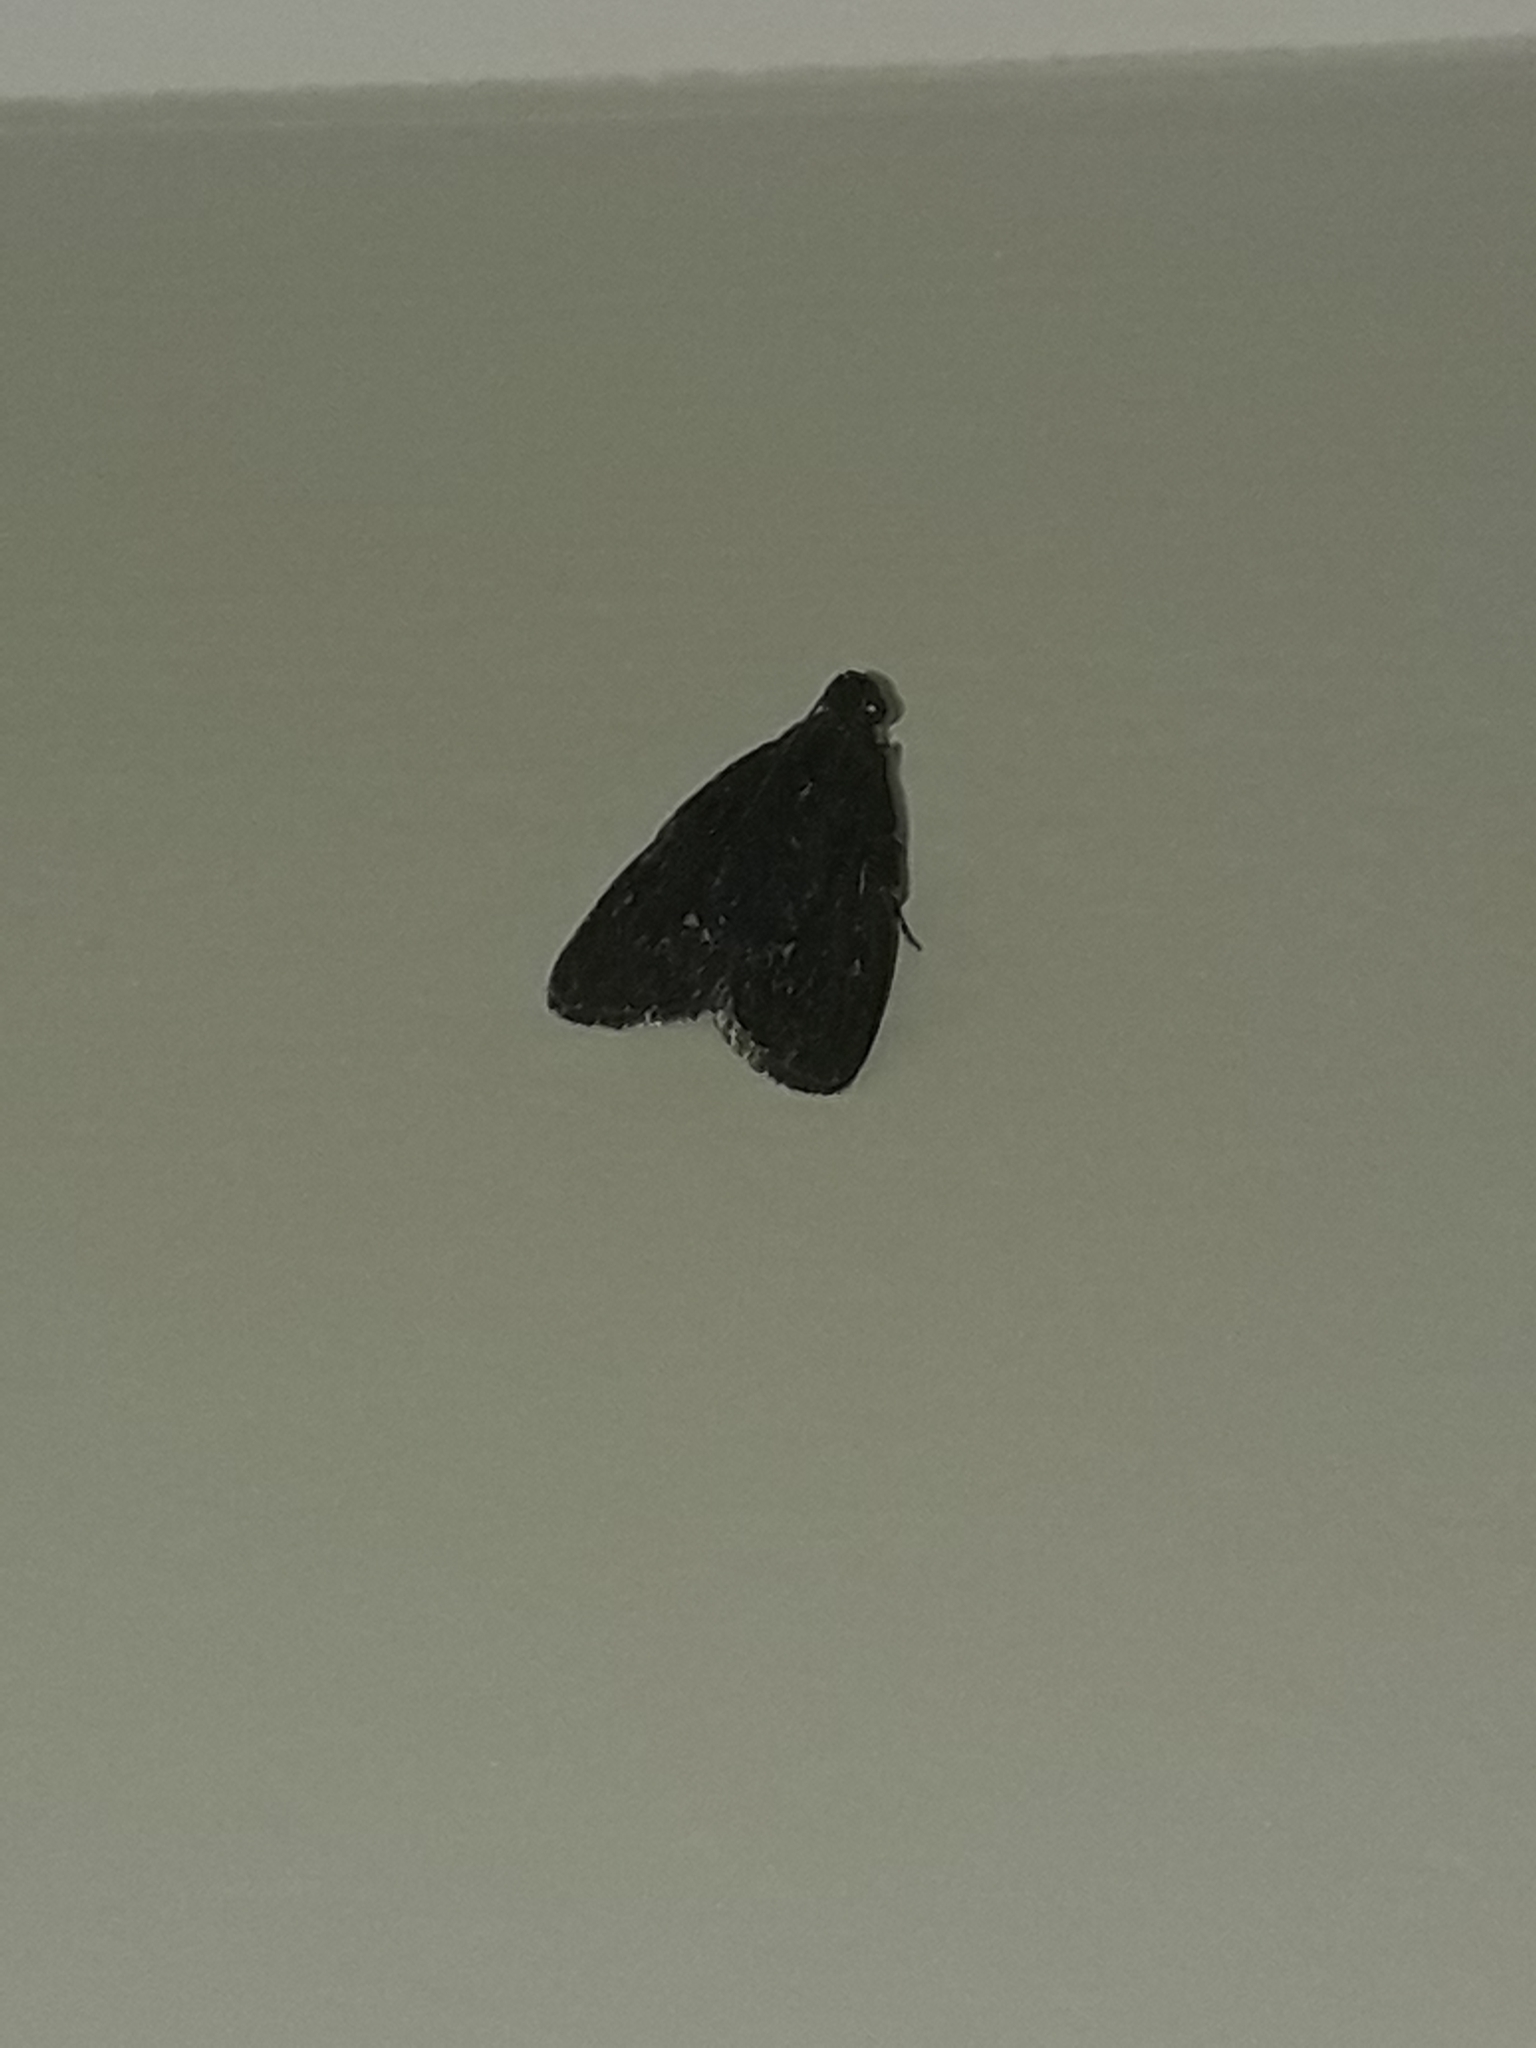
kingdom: Animalia
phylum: Arthropoda
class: Insecta
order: Lepidoptera
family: Pyralidae
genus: Stericta
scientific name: Stericta carbonalis
